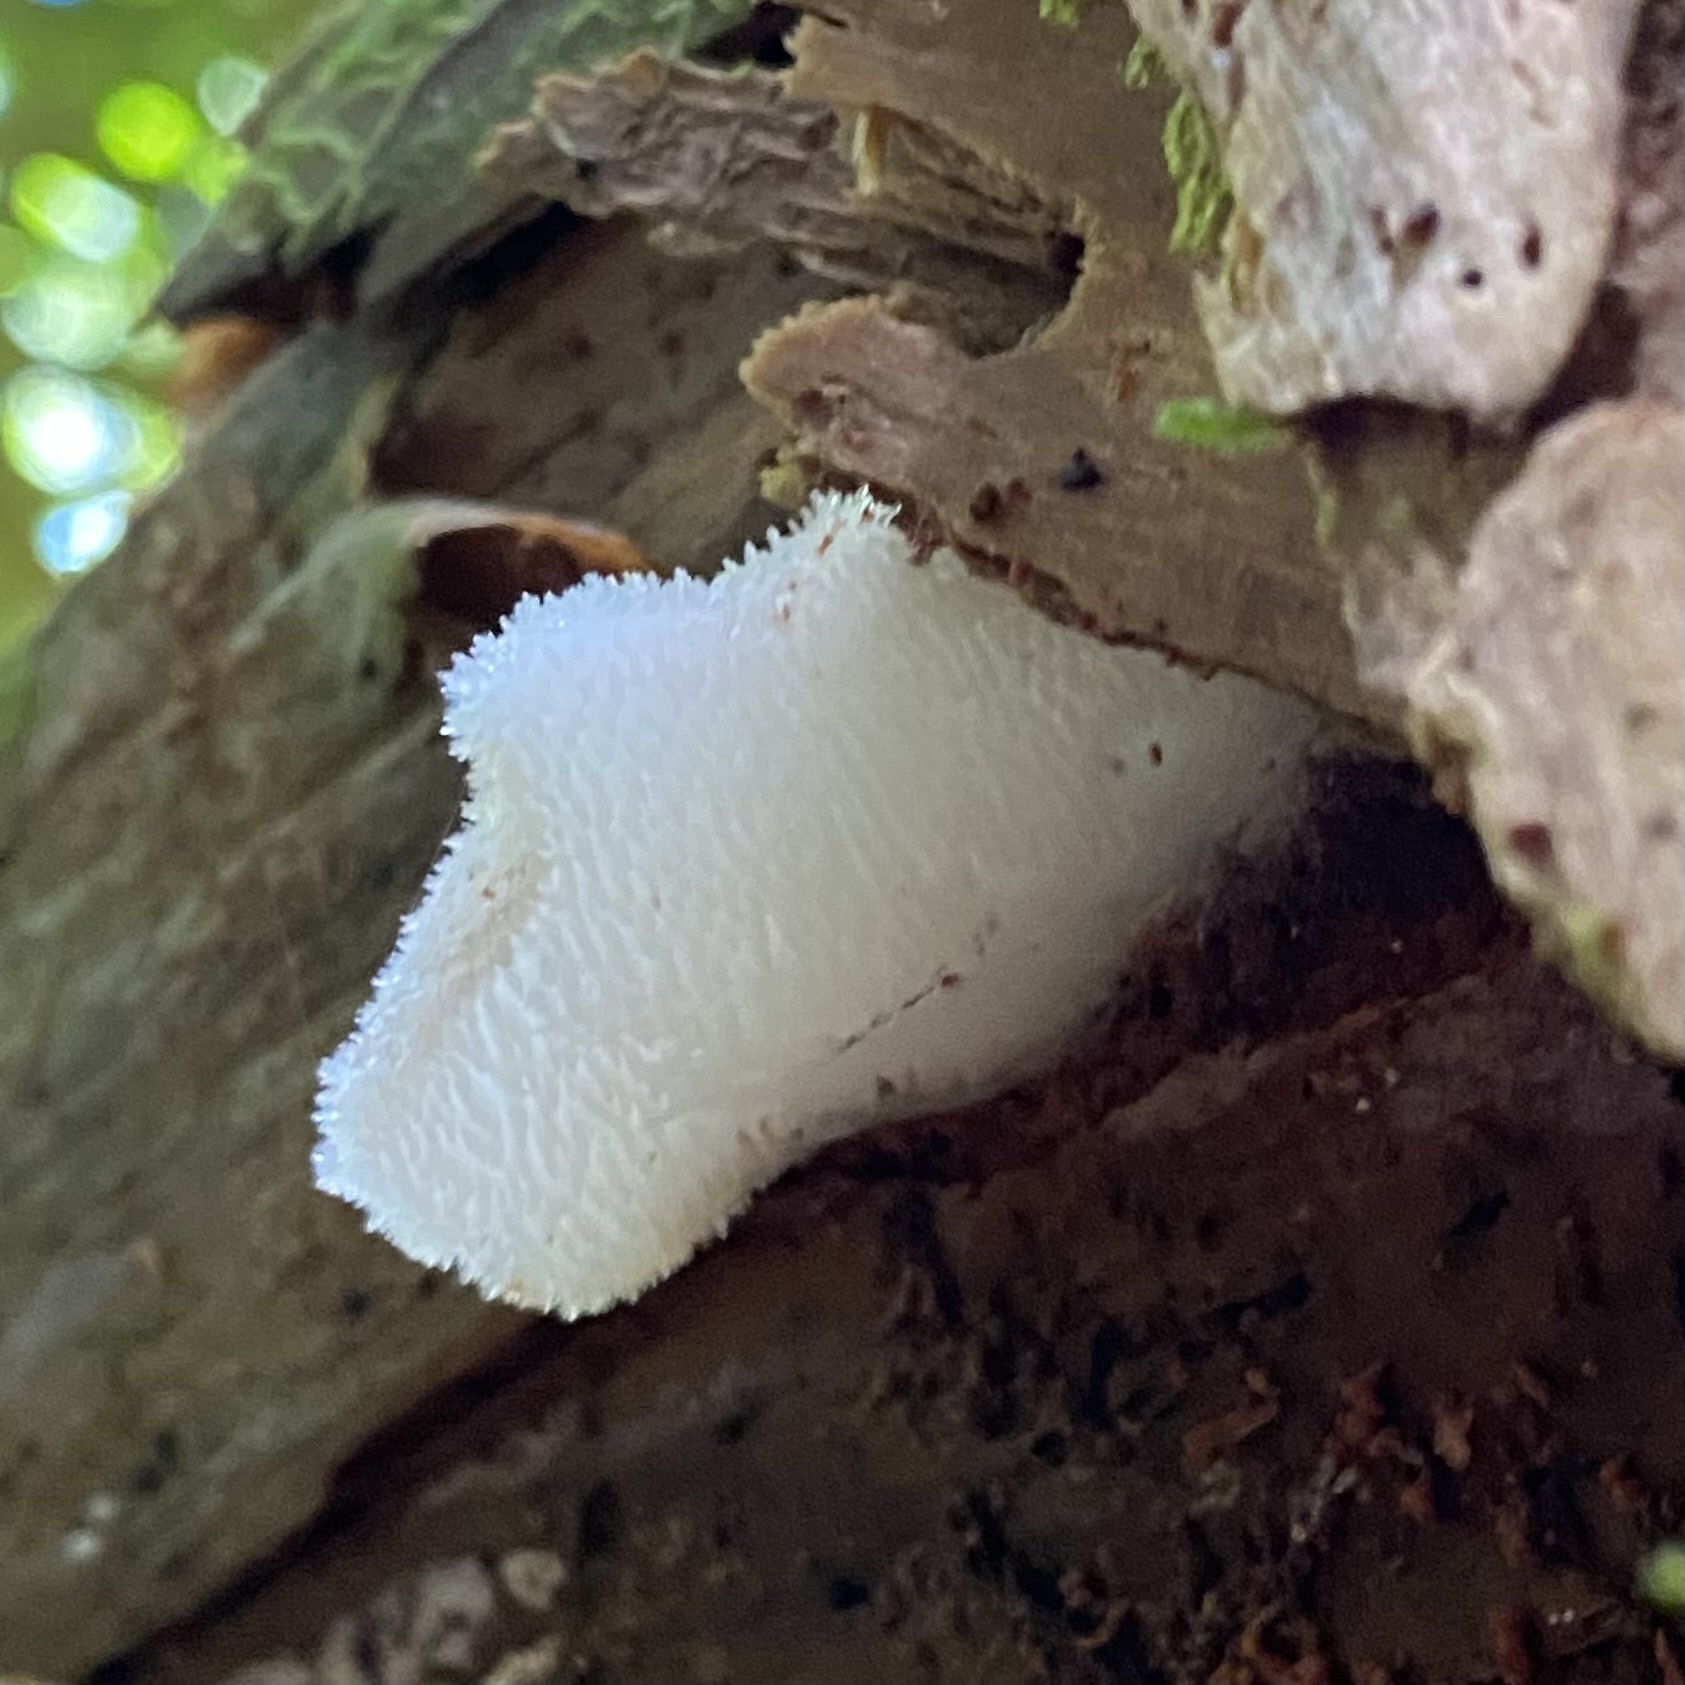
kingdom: Fungi
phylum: Basidiomycota
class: Agaricomycetes
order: Auriculariales
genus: Pseudohydnum
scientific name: Pseudohydnum gelatinosum
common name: Jelly tongue
